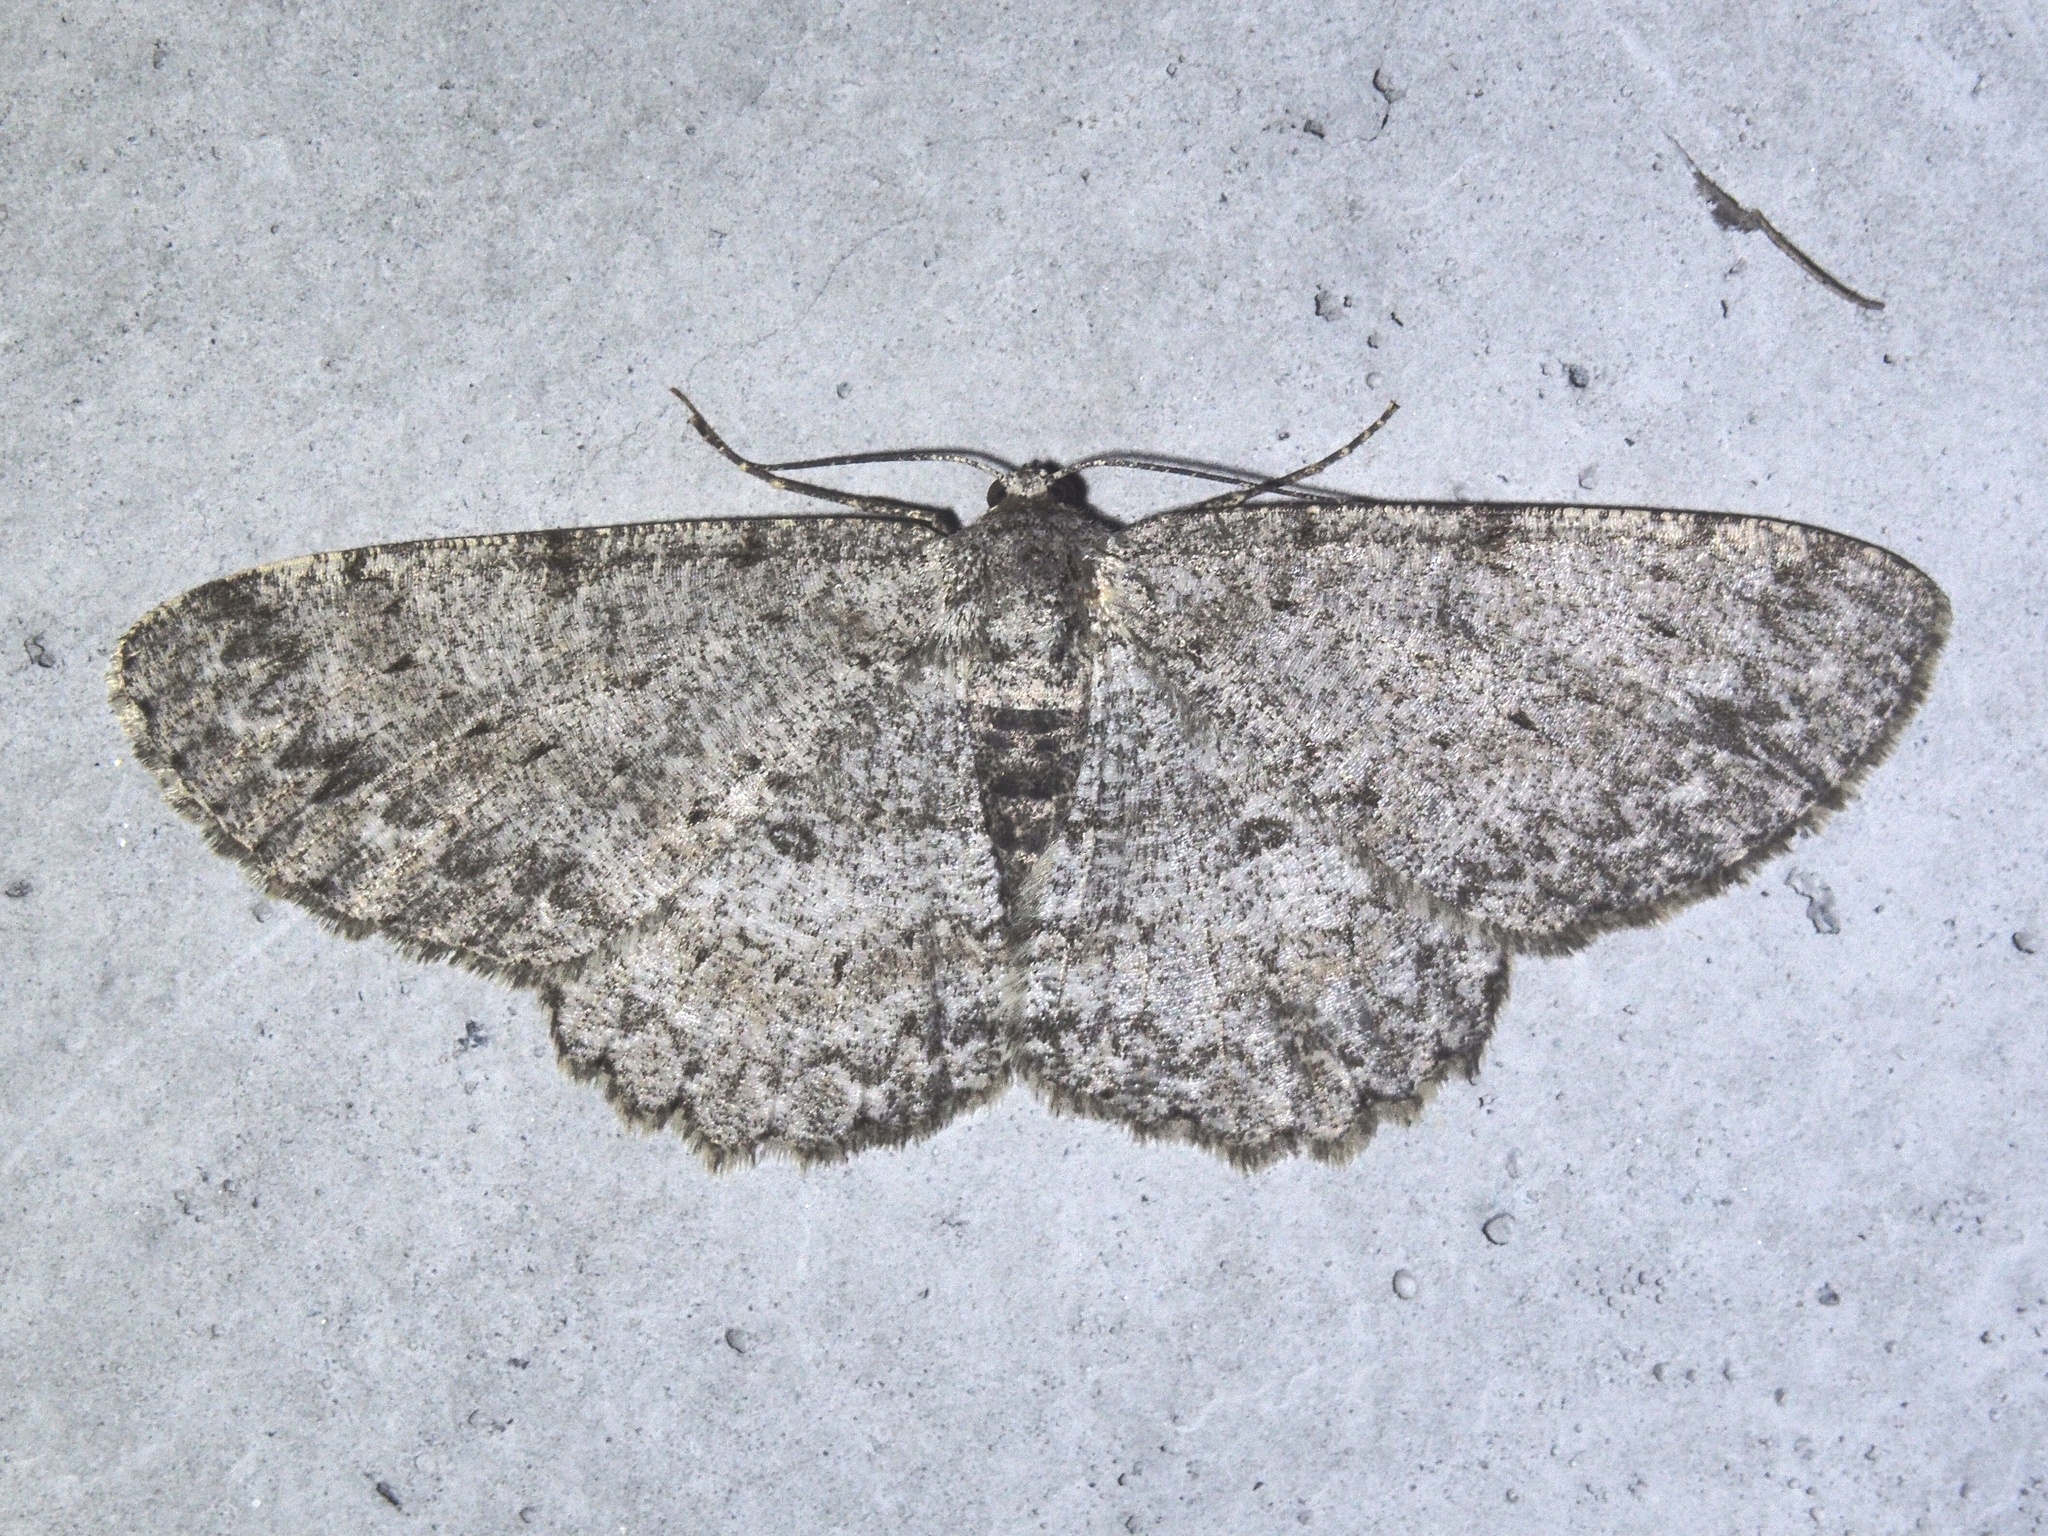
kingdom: Animalia
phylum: Arthropoda
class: Insecta
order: Lepidoptera
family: Geometridae
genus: Hypomecis
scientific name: Hypomecis punctinalis
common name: Pale oak beauty
